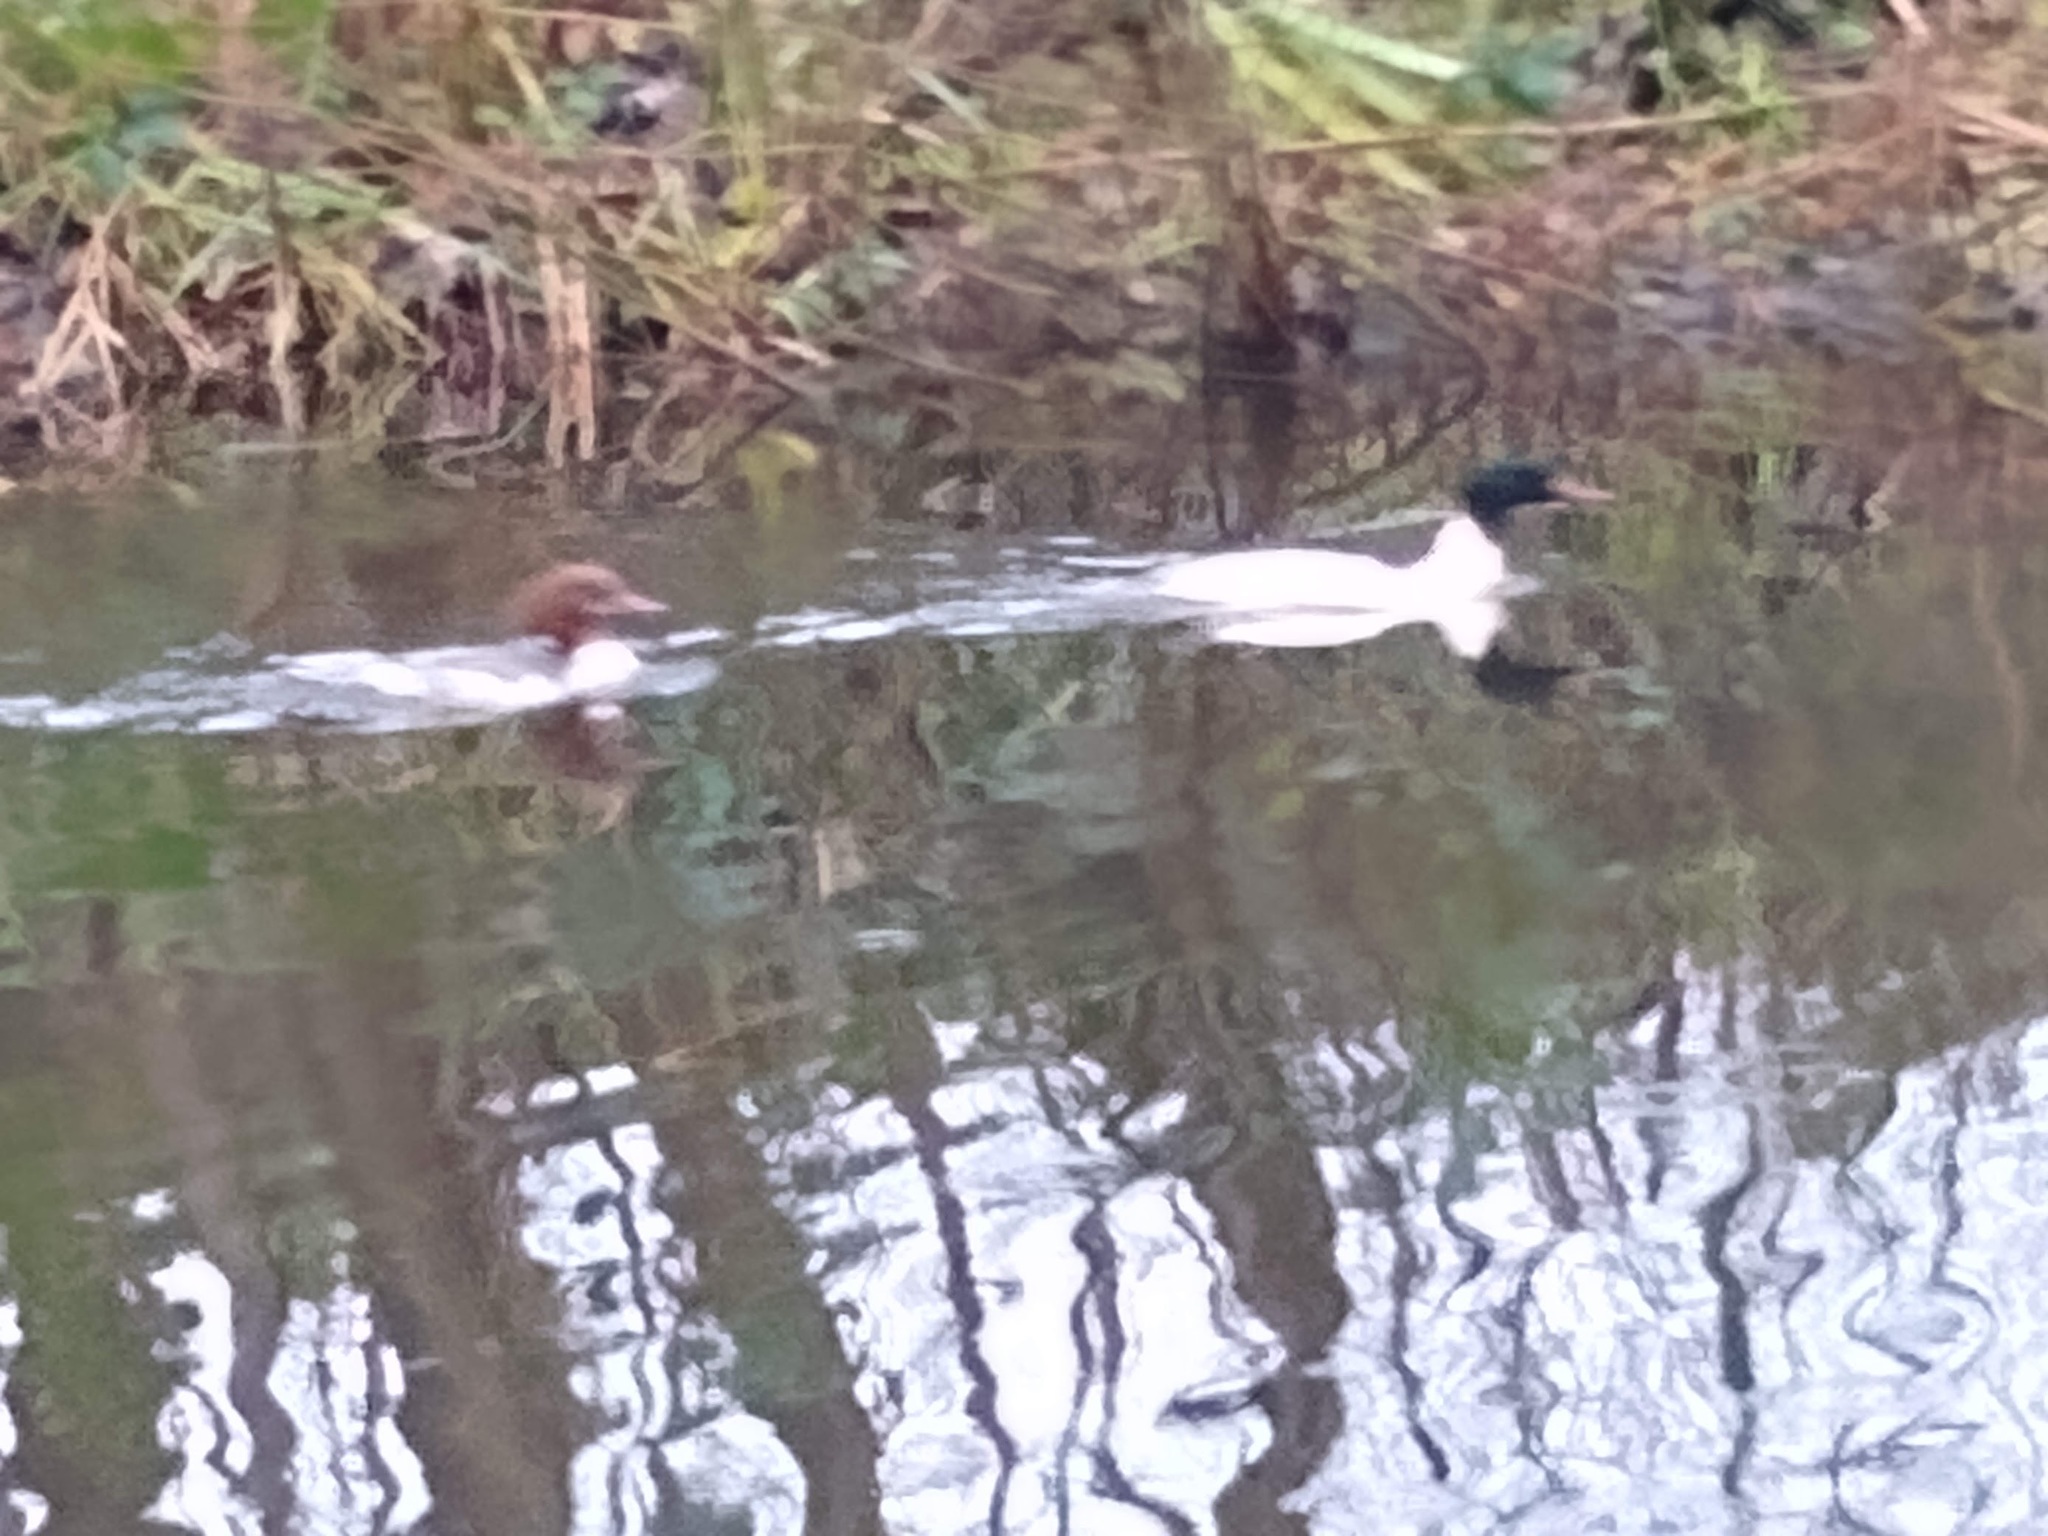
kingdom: Animalia
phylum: Chordata
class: Aves
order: Anseriformes
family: Anatidae
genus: Mergus
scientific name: Mergus merganser
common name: Common merganser
